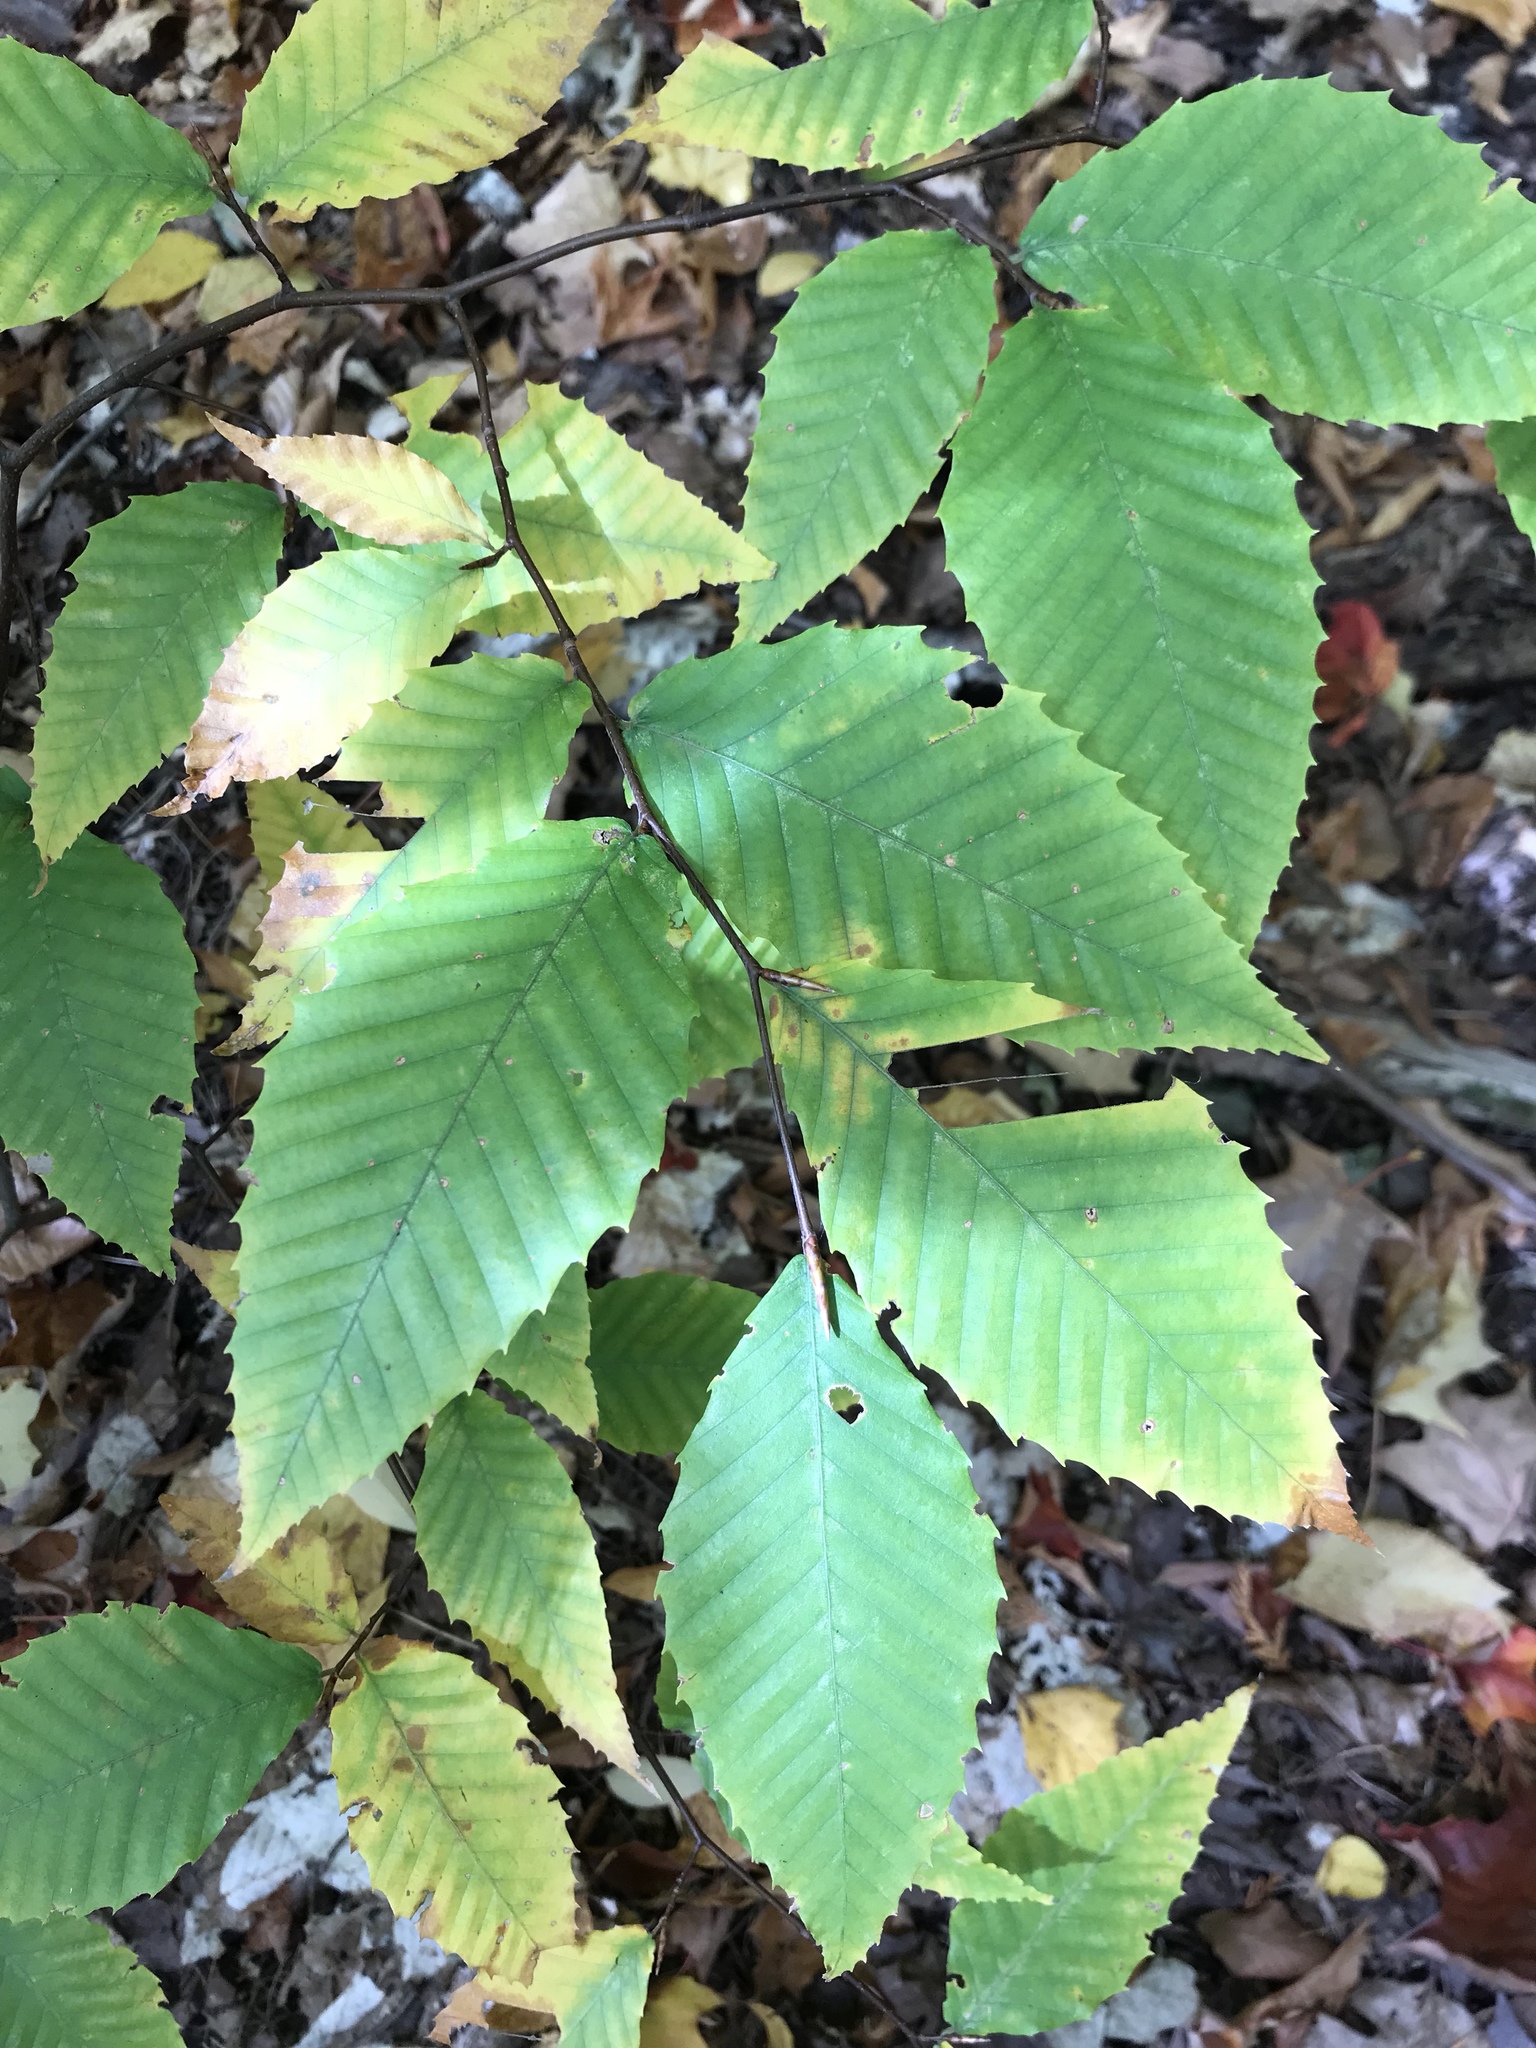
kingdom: Plantae
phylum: Tracheophyta
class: Magnoliopsida
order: Fagales
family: Fagaceae
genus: Fagus
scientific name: Fagus grandifolia
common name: American beech
